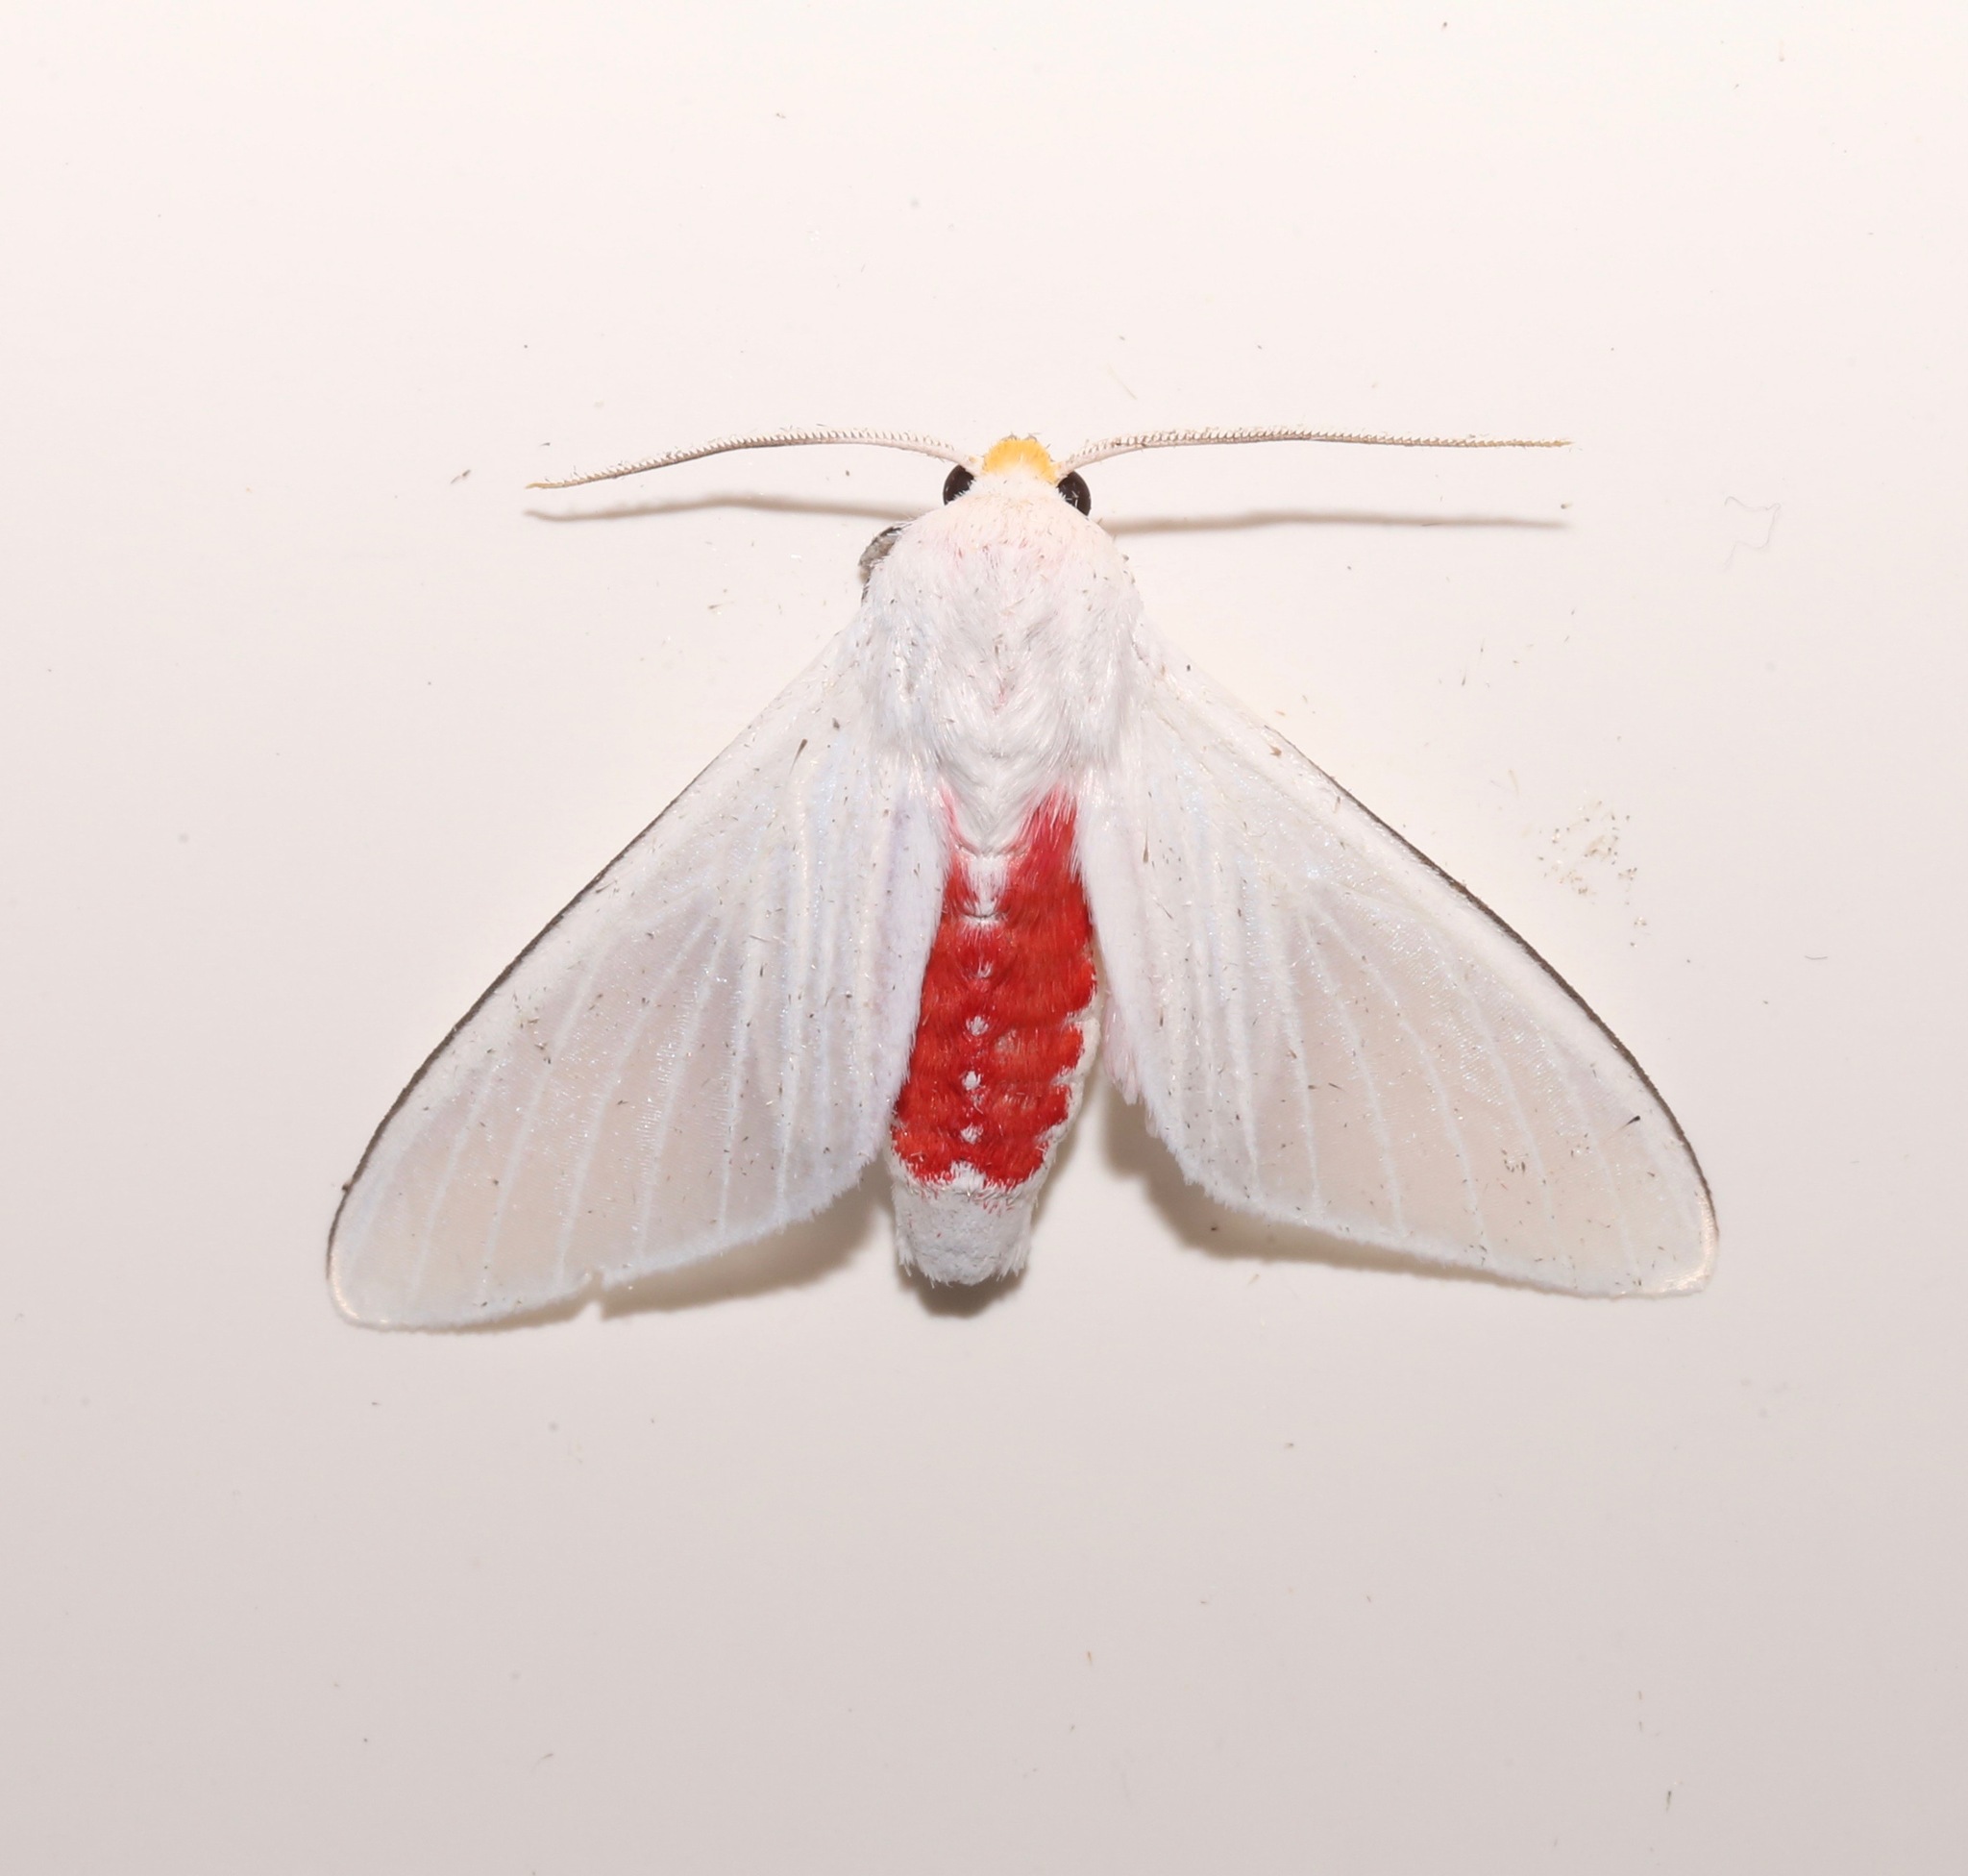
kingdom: Animalia
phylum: Arthropoda
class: Insecta
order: Lepidoptera
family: Erebidae
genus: Eupseudosoma
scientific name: Eupseudosoma involuta
